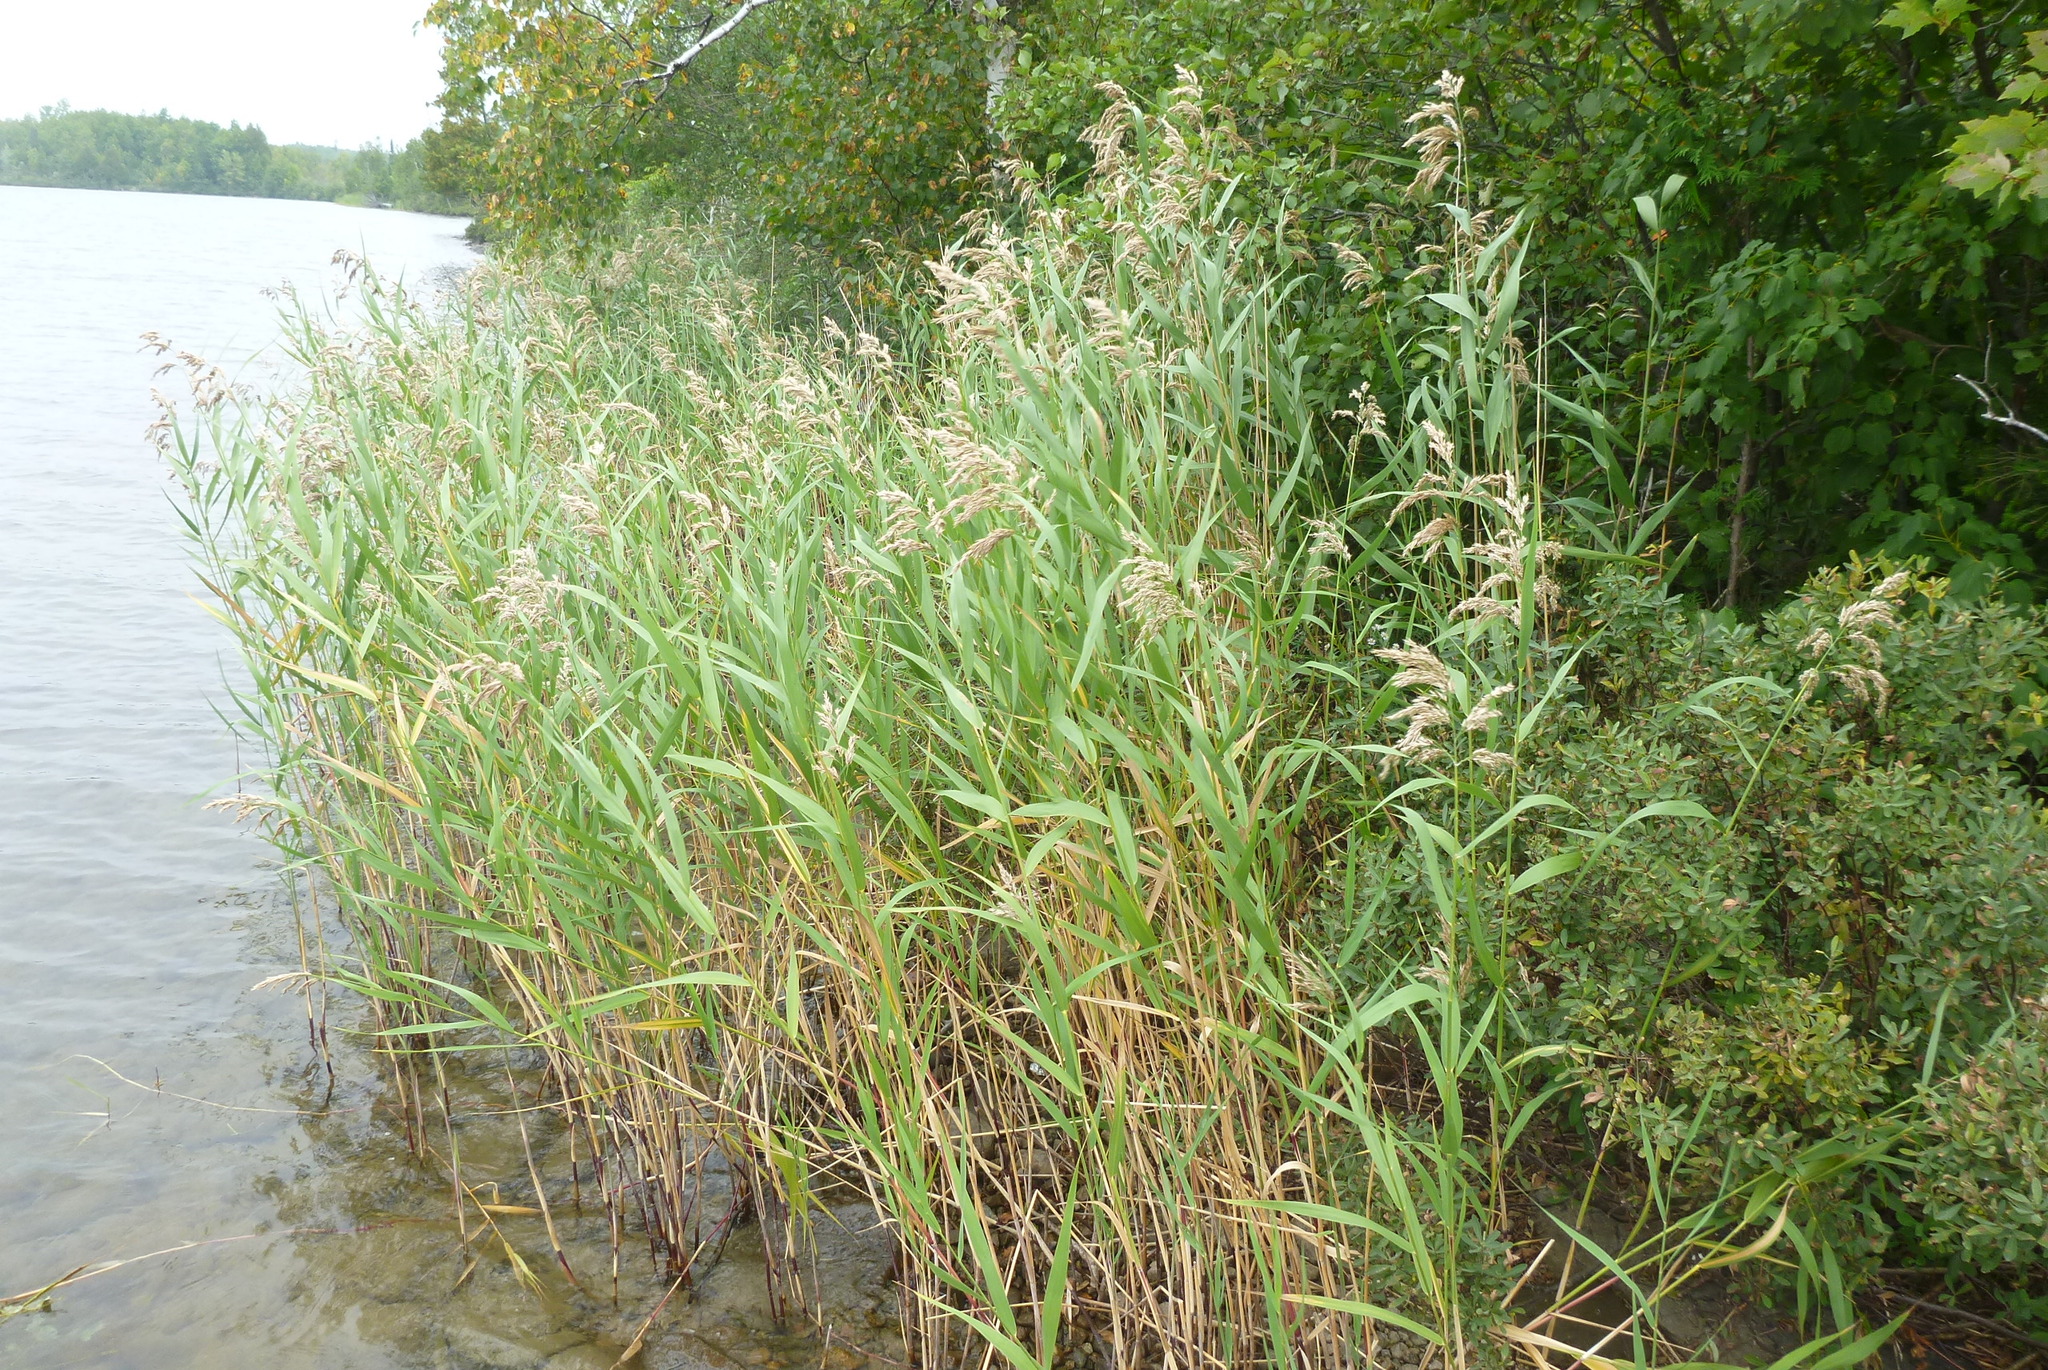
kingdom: Plantae
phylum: Tracheophyta
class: Liliopsida
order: Poales
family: Poaceae
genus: Phragmites
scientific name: Phragmites australis
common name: Common reed
